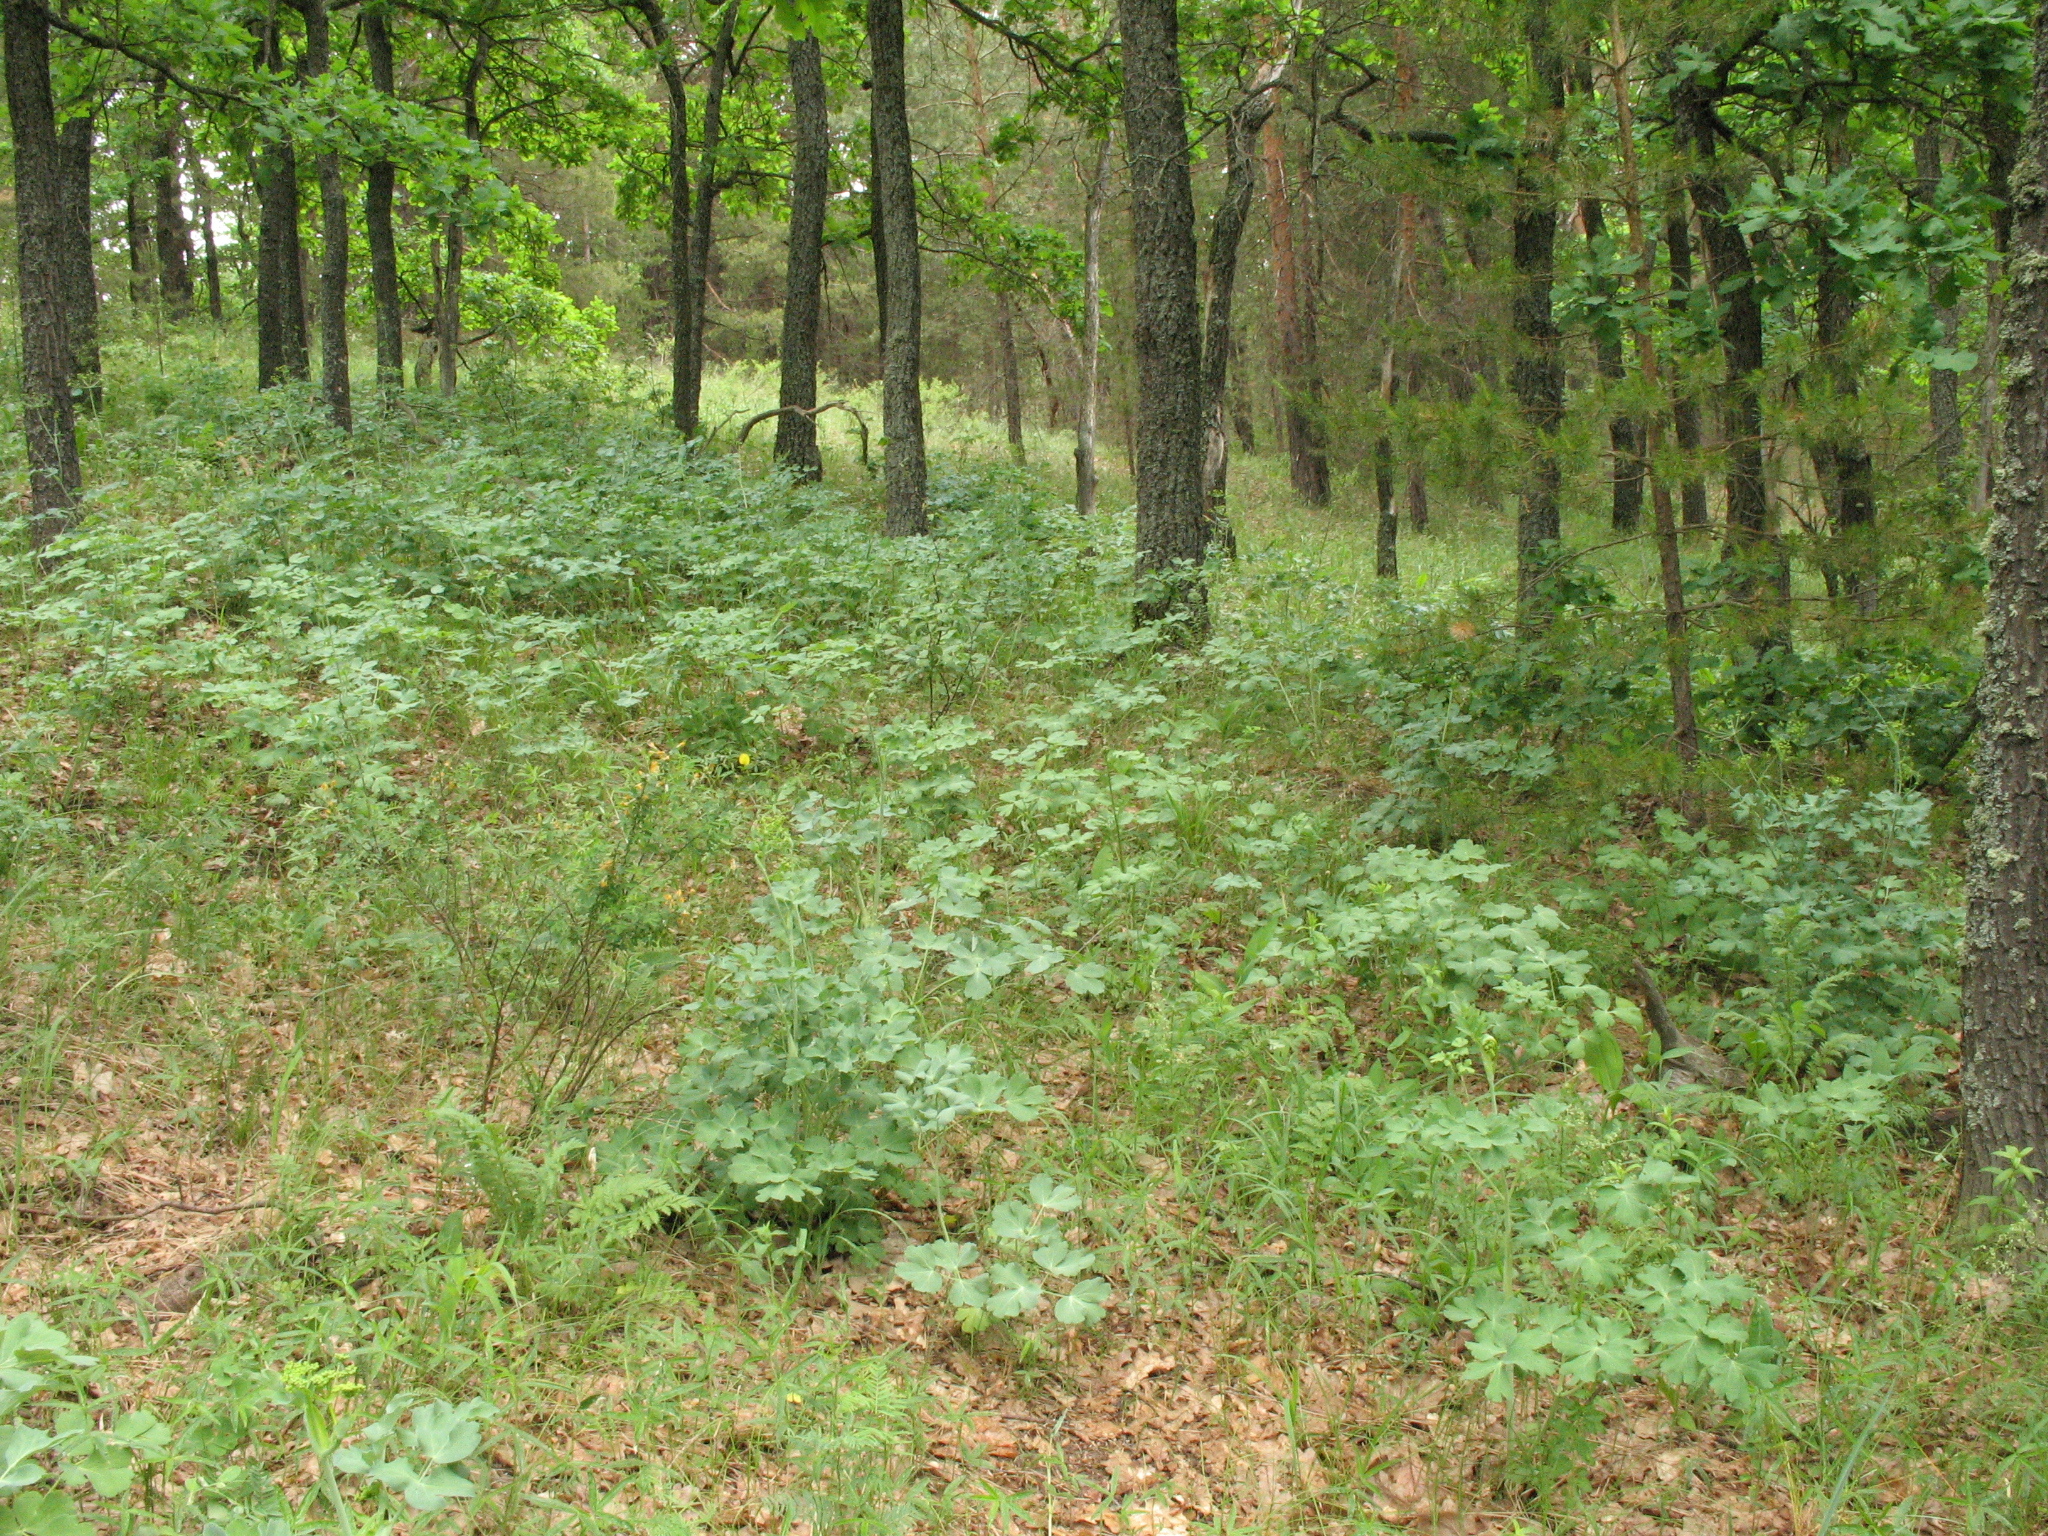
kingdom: Plantae
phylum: Tracheophyta
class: Magnoliopsida
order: Apiales
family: Apiaceae
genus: Laser
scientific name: Laser trilobum
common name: Laser
